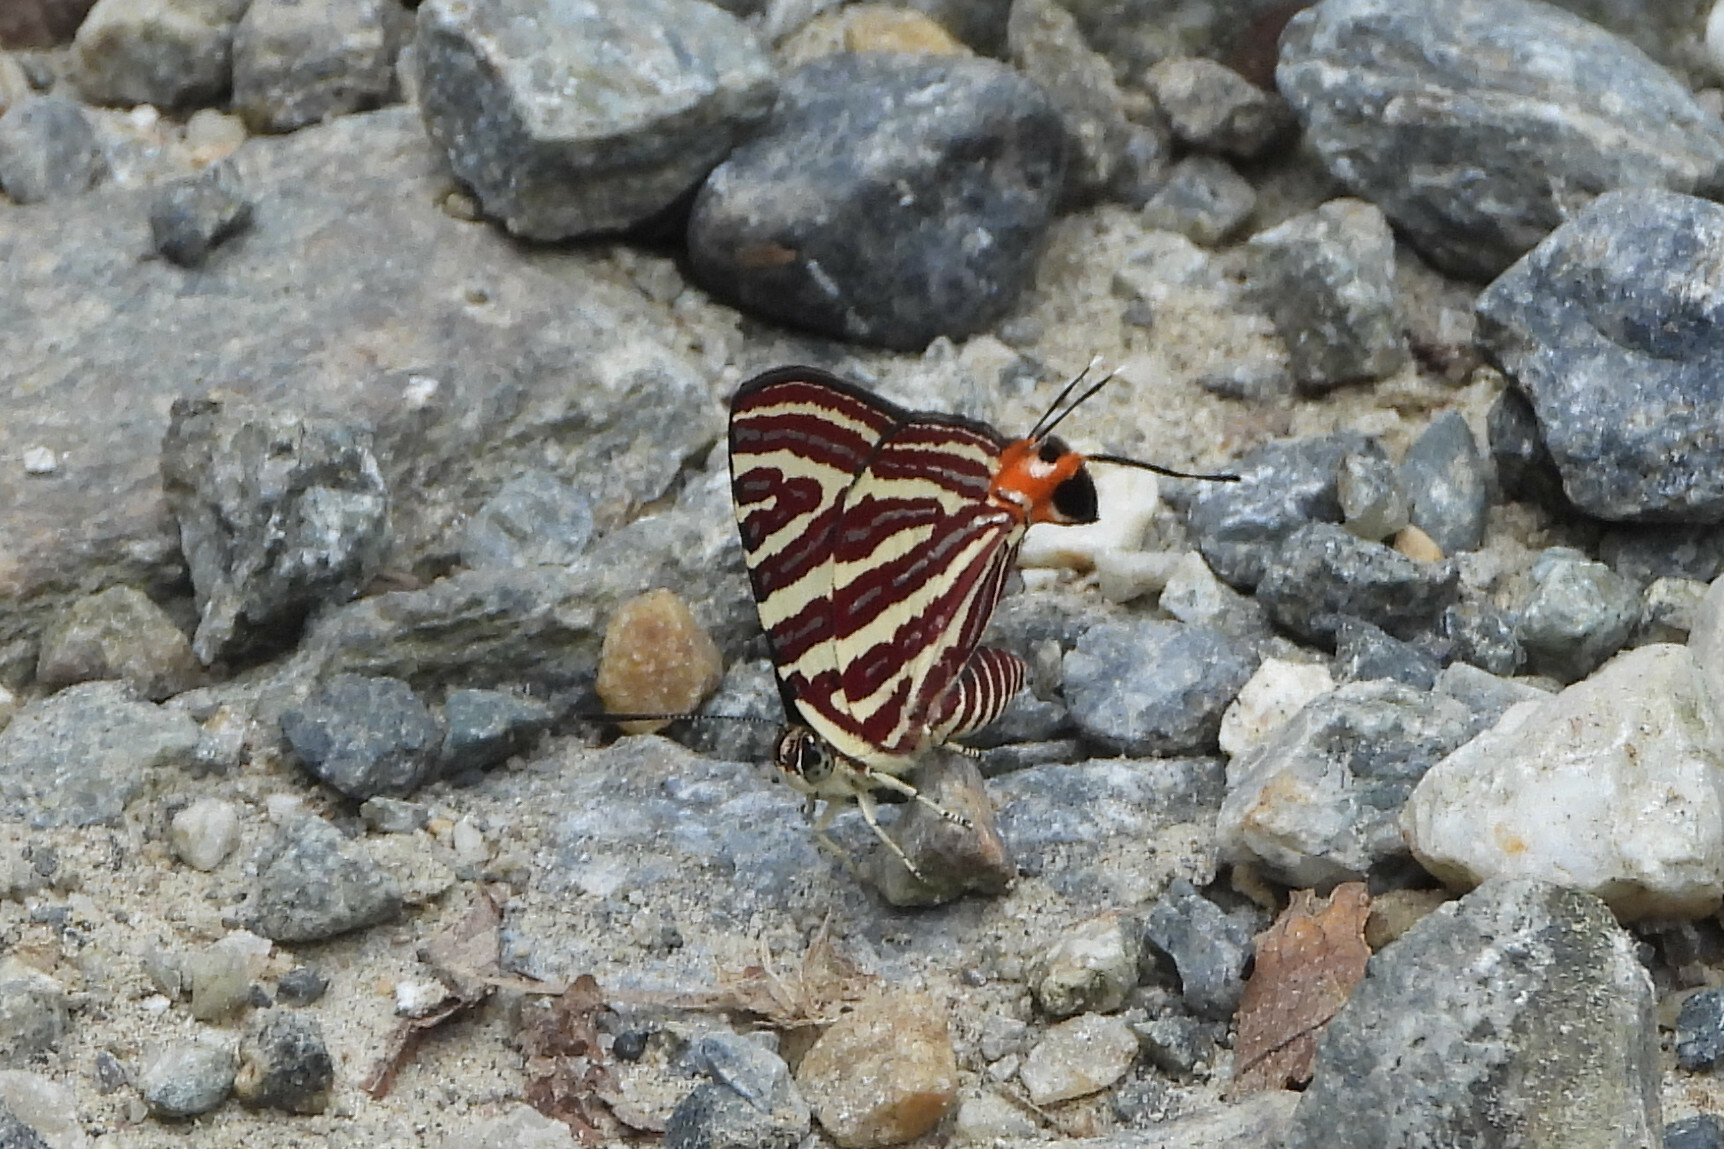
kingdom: Animalia
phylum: Arthropoda
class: Insecta
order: Lepidoptera
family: Lycaenidae
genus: Cigaritis
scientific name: Cigaritis lohita
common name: Long-banded silverline
